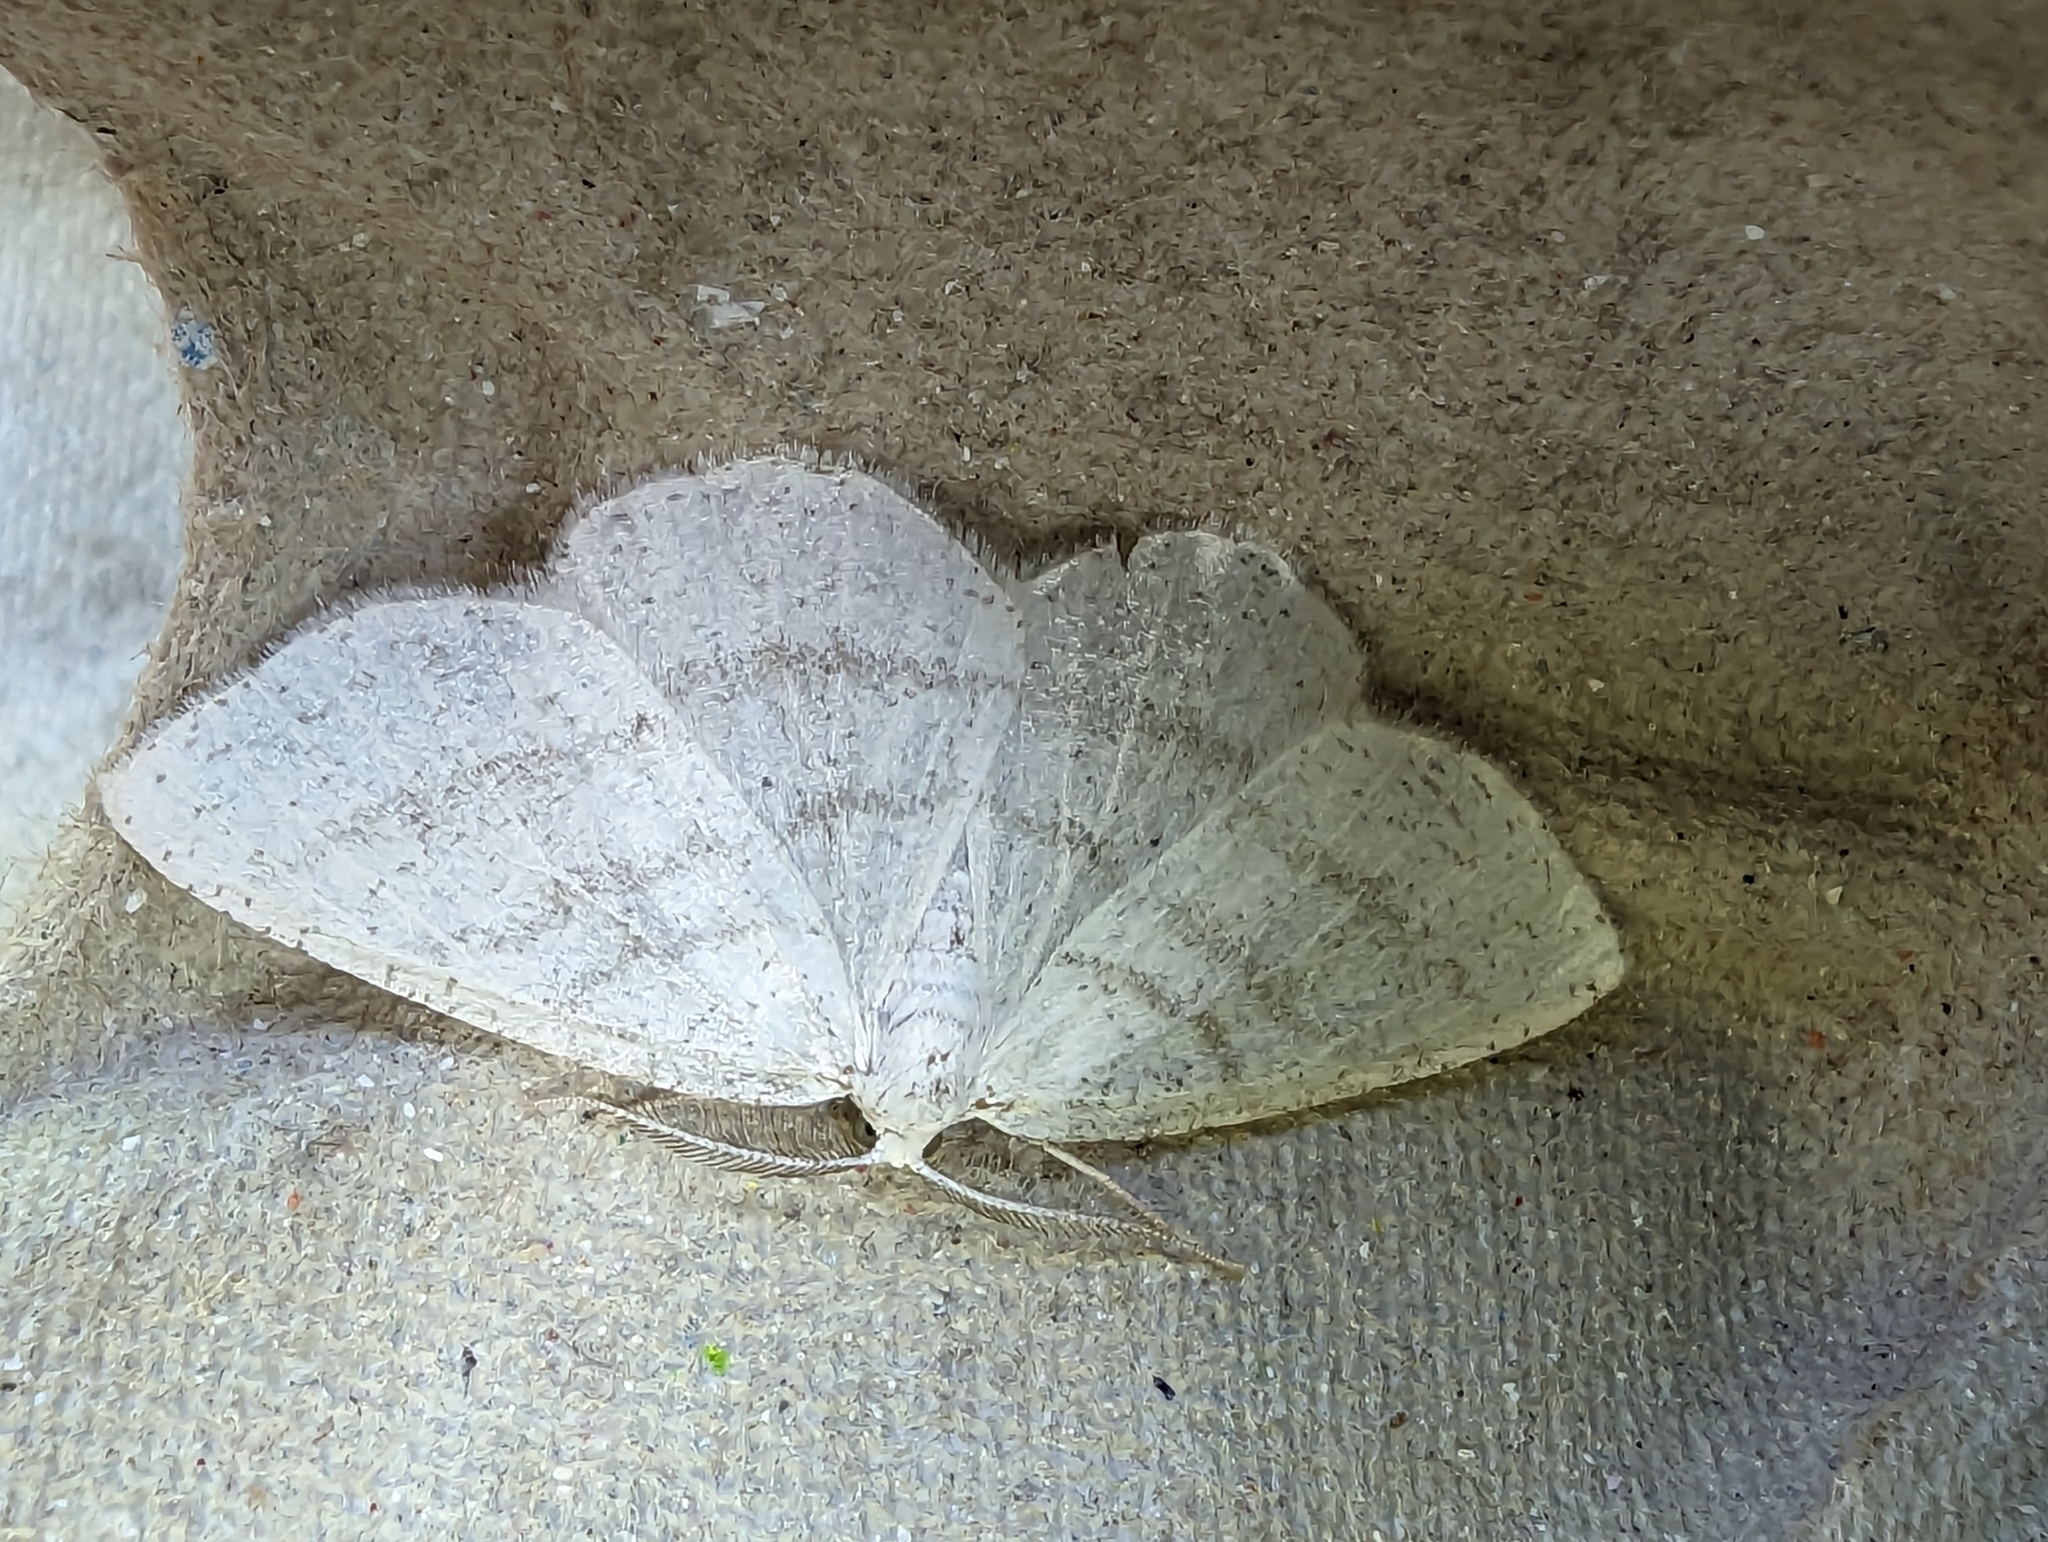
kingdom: Animalia
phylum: Arthropoda
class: Insecta
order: Lepidoptera
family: Geometridae
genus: Cabera
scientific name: Cabera pusaria
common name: Common white wave
